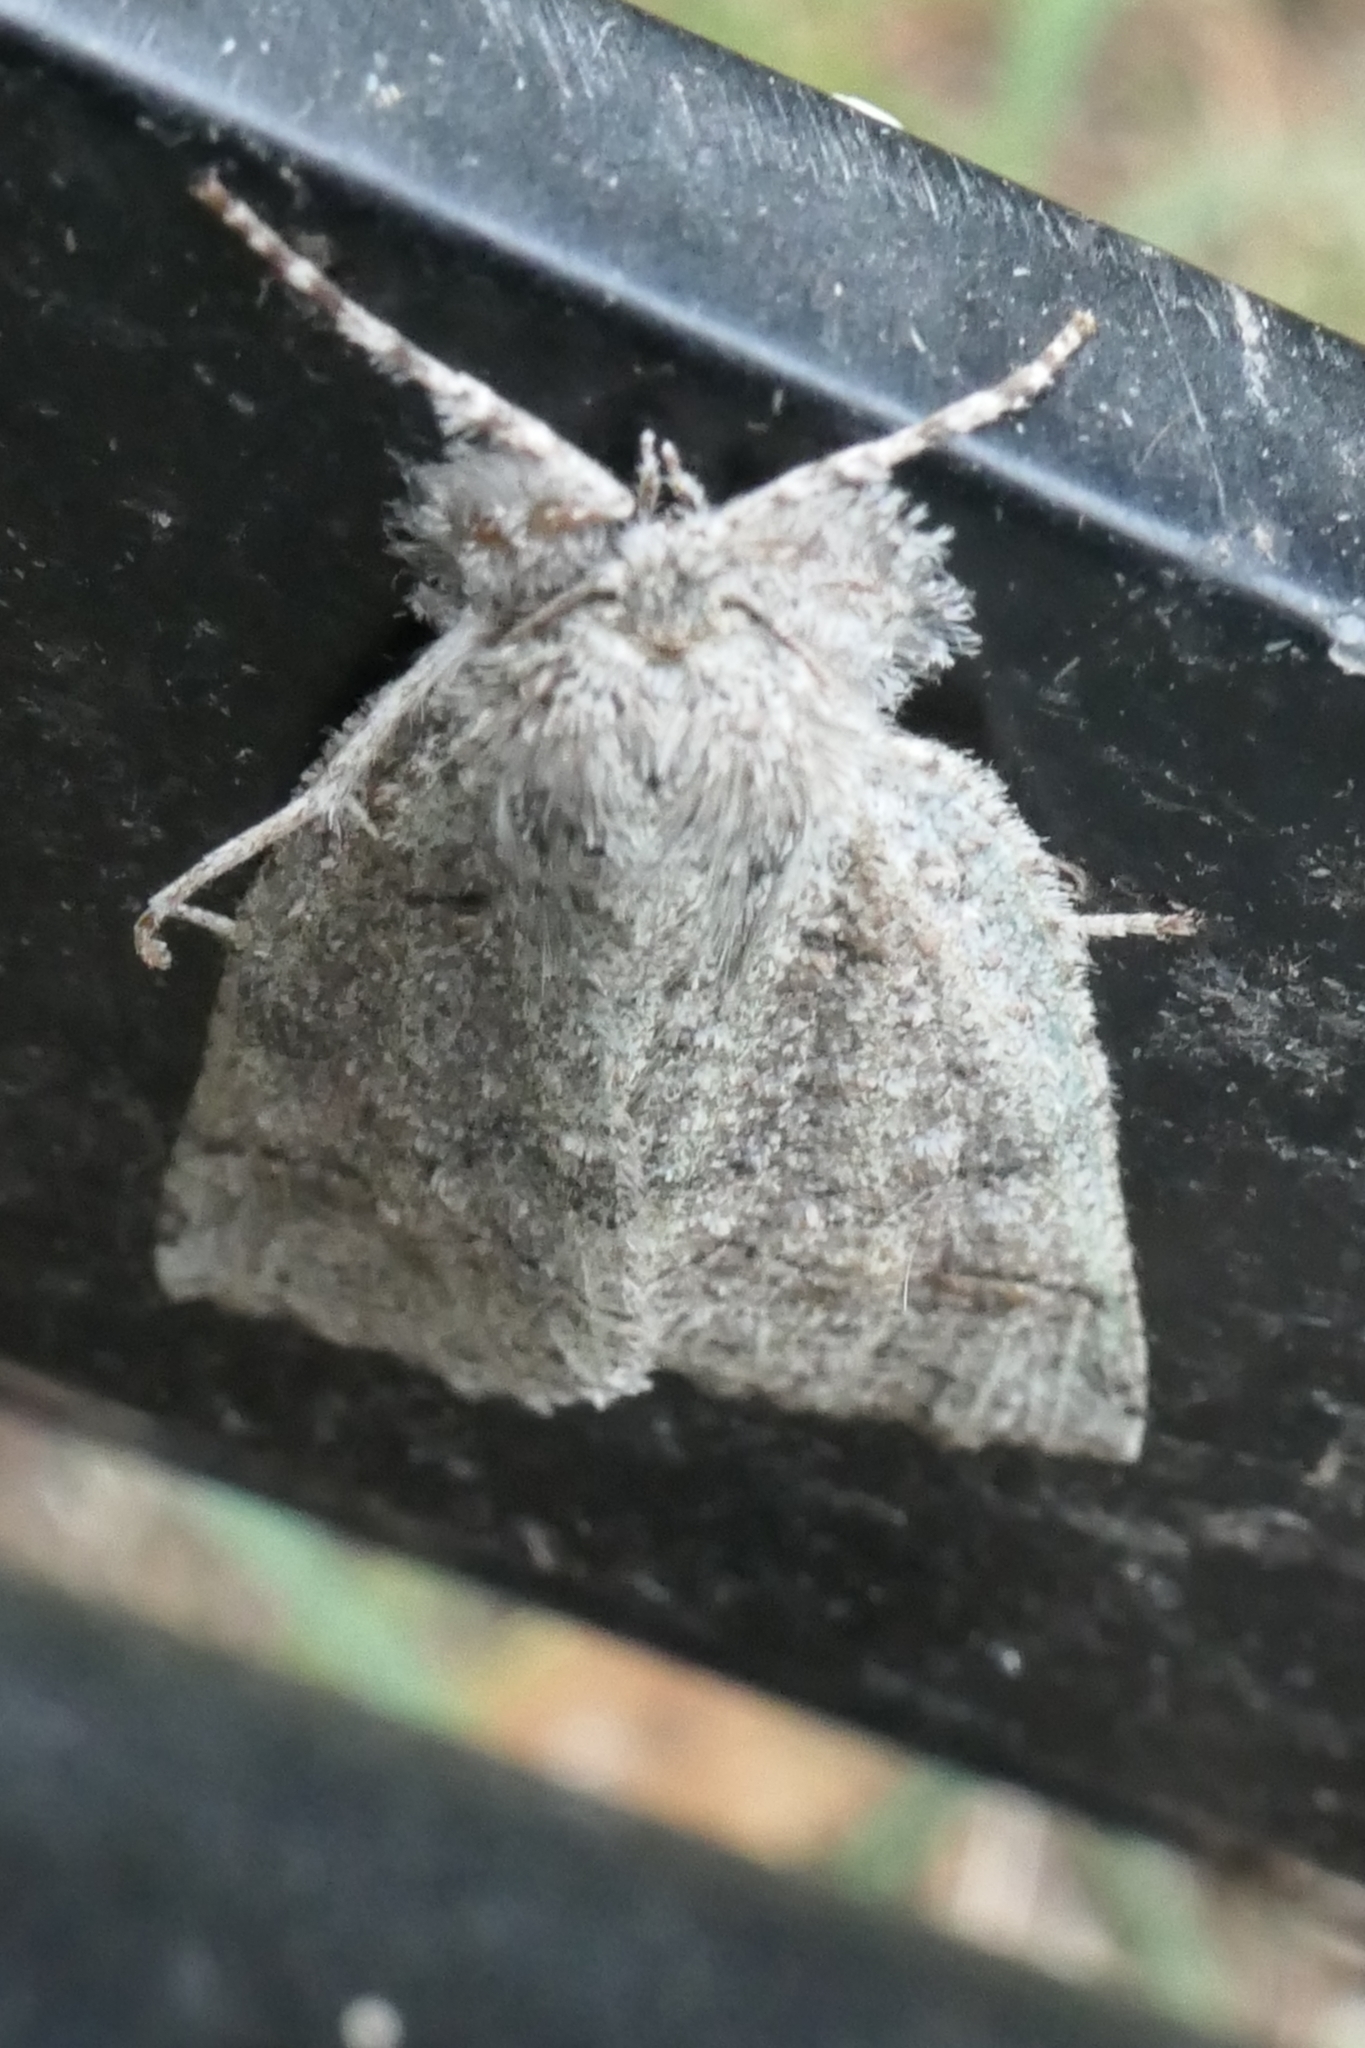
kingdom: Animalia
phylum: Arthropoda
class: Insecta
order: Lepidoptera
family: Geometridae
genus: Declana
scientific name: Declana floccosa
